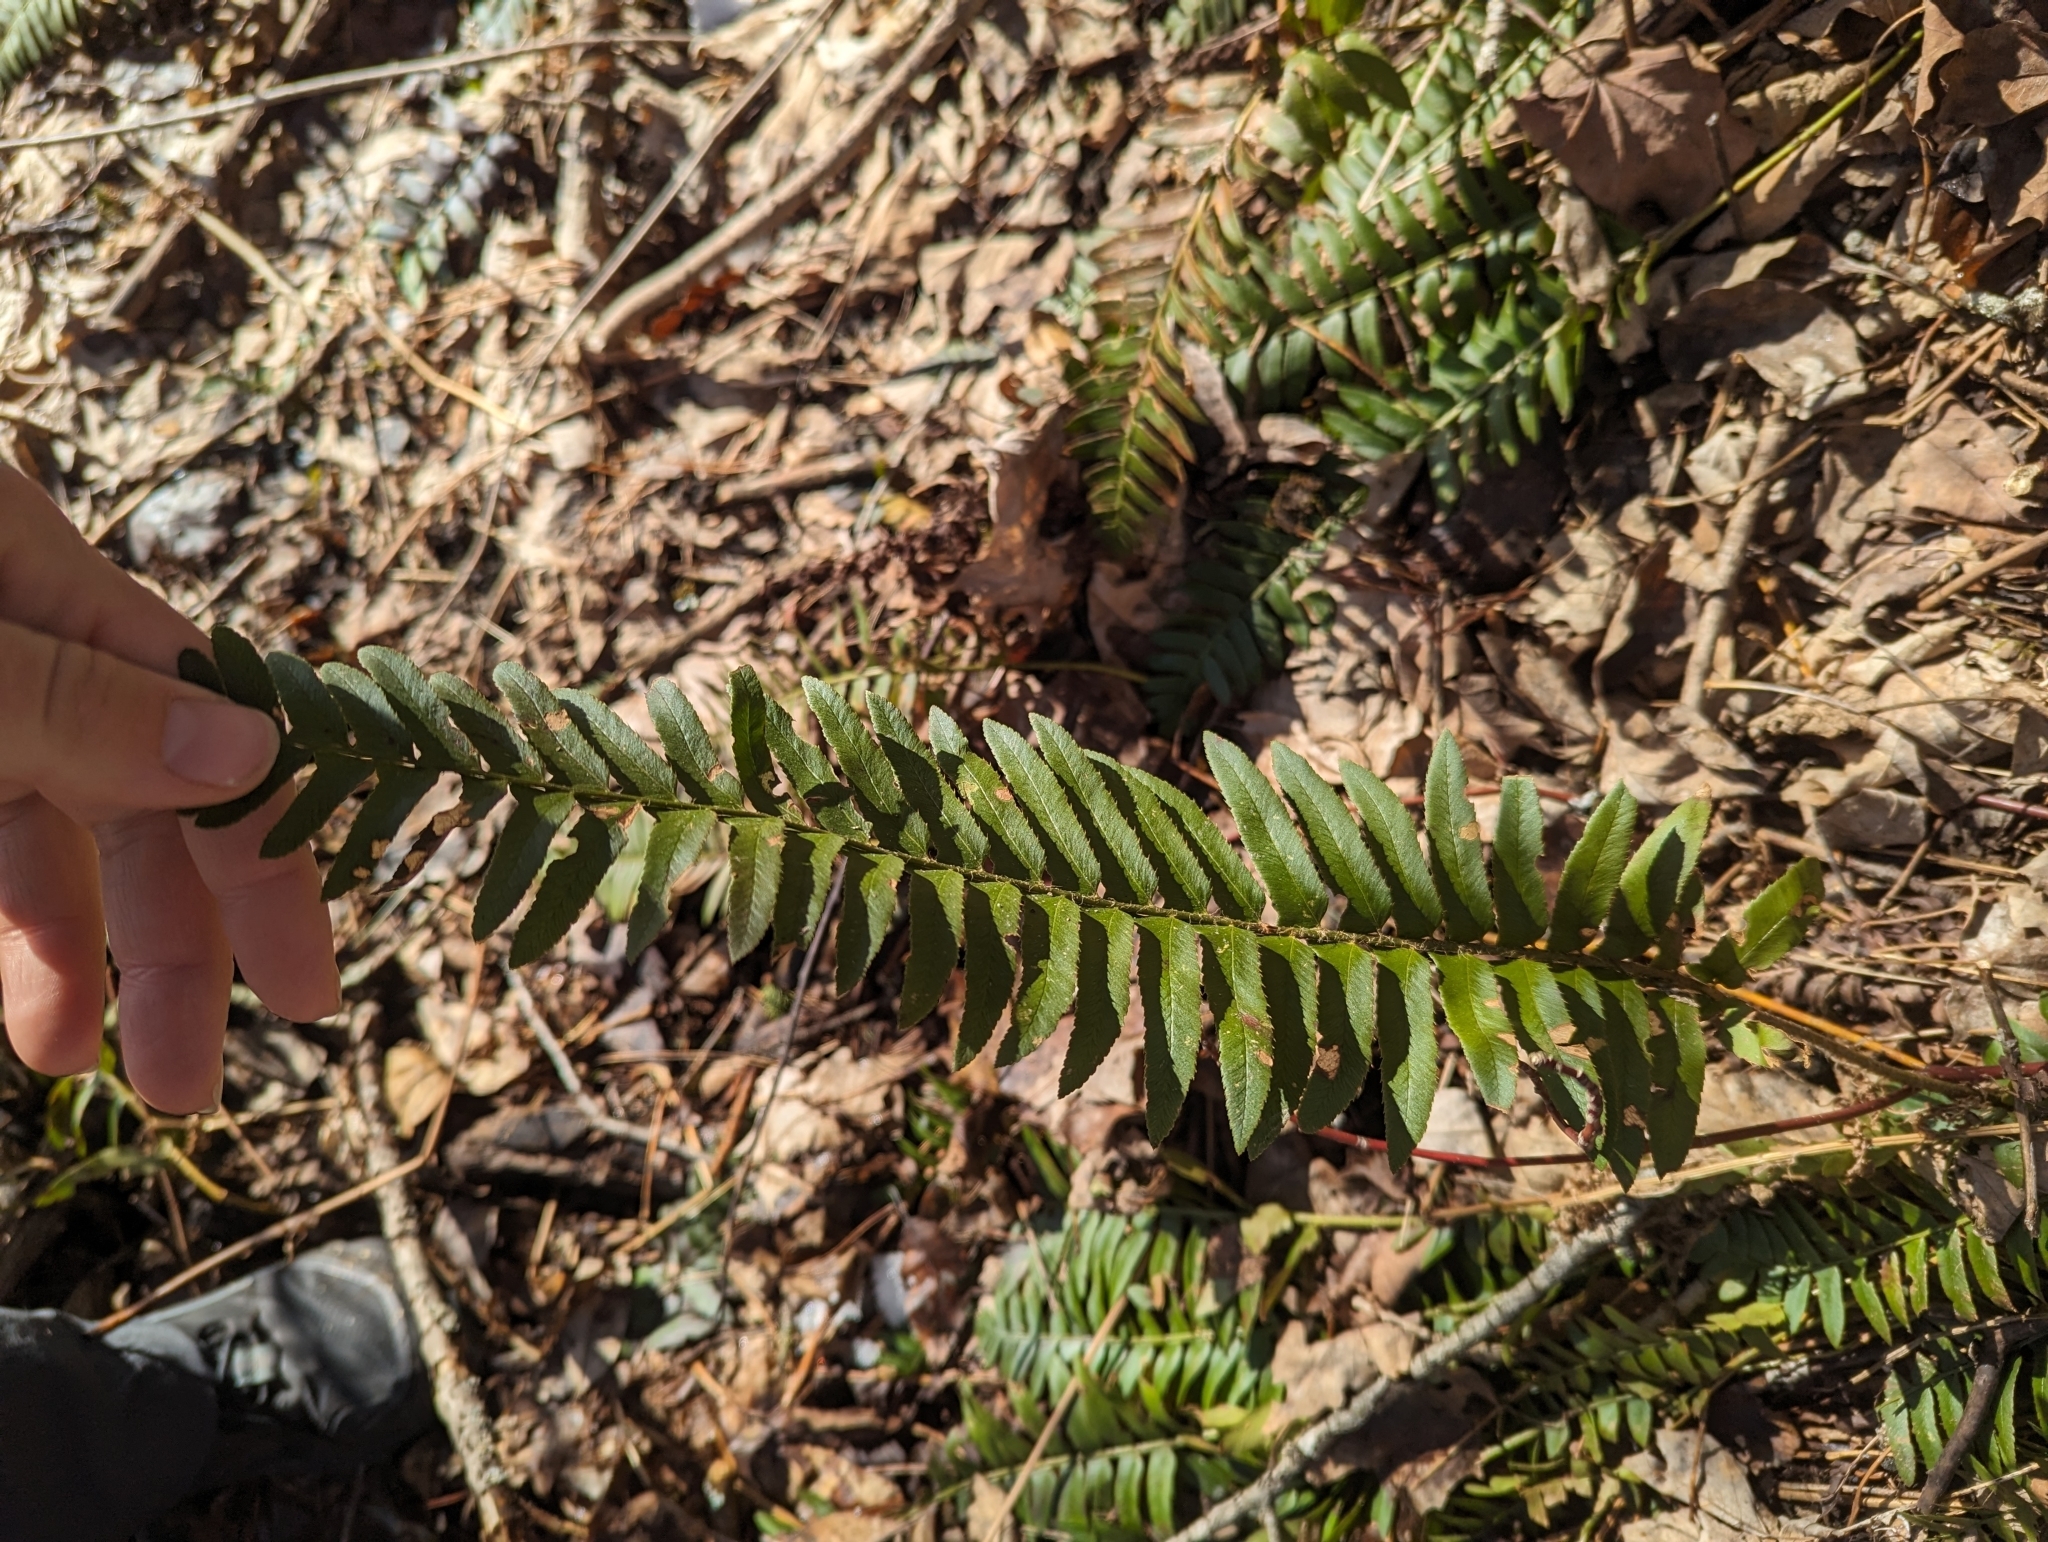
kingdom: Plantae
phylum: Tracheophyta
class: Polypodiopsida
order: Polypodiales
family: Dryopteridaceae
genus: Polystichum
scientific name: Polystichum acrostichoides
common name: Christmas fern
